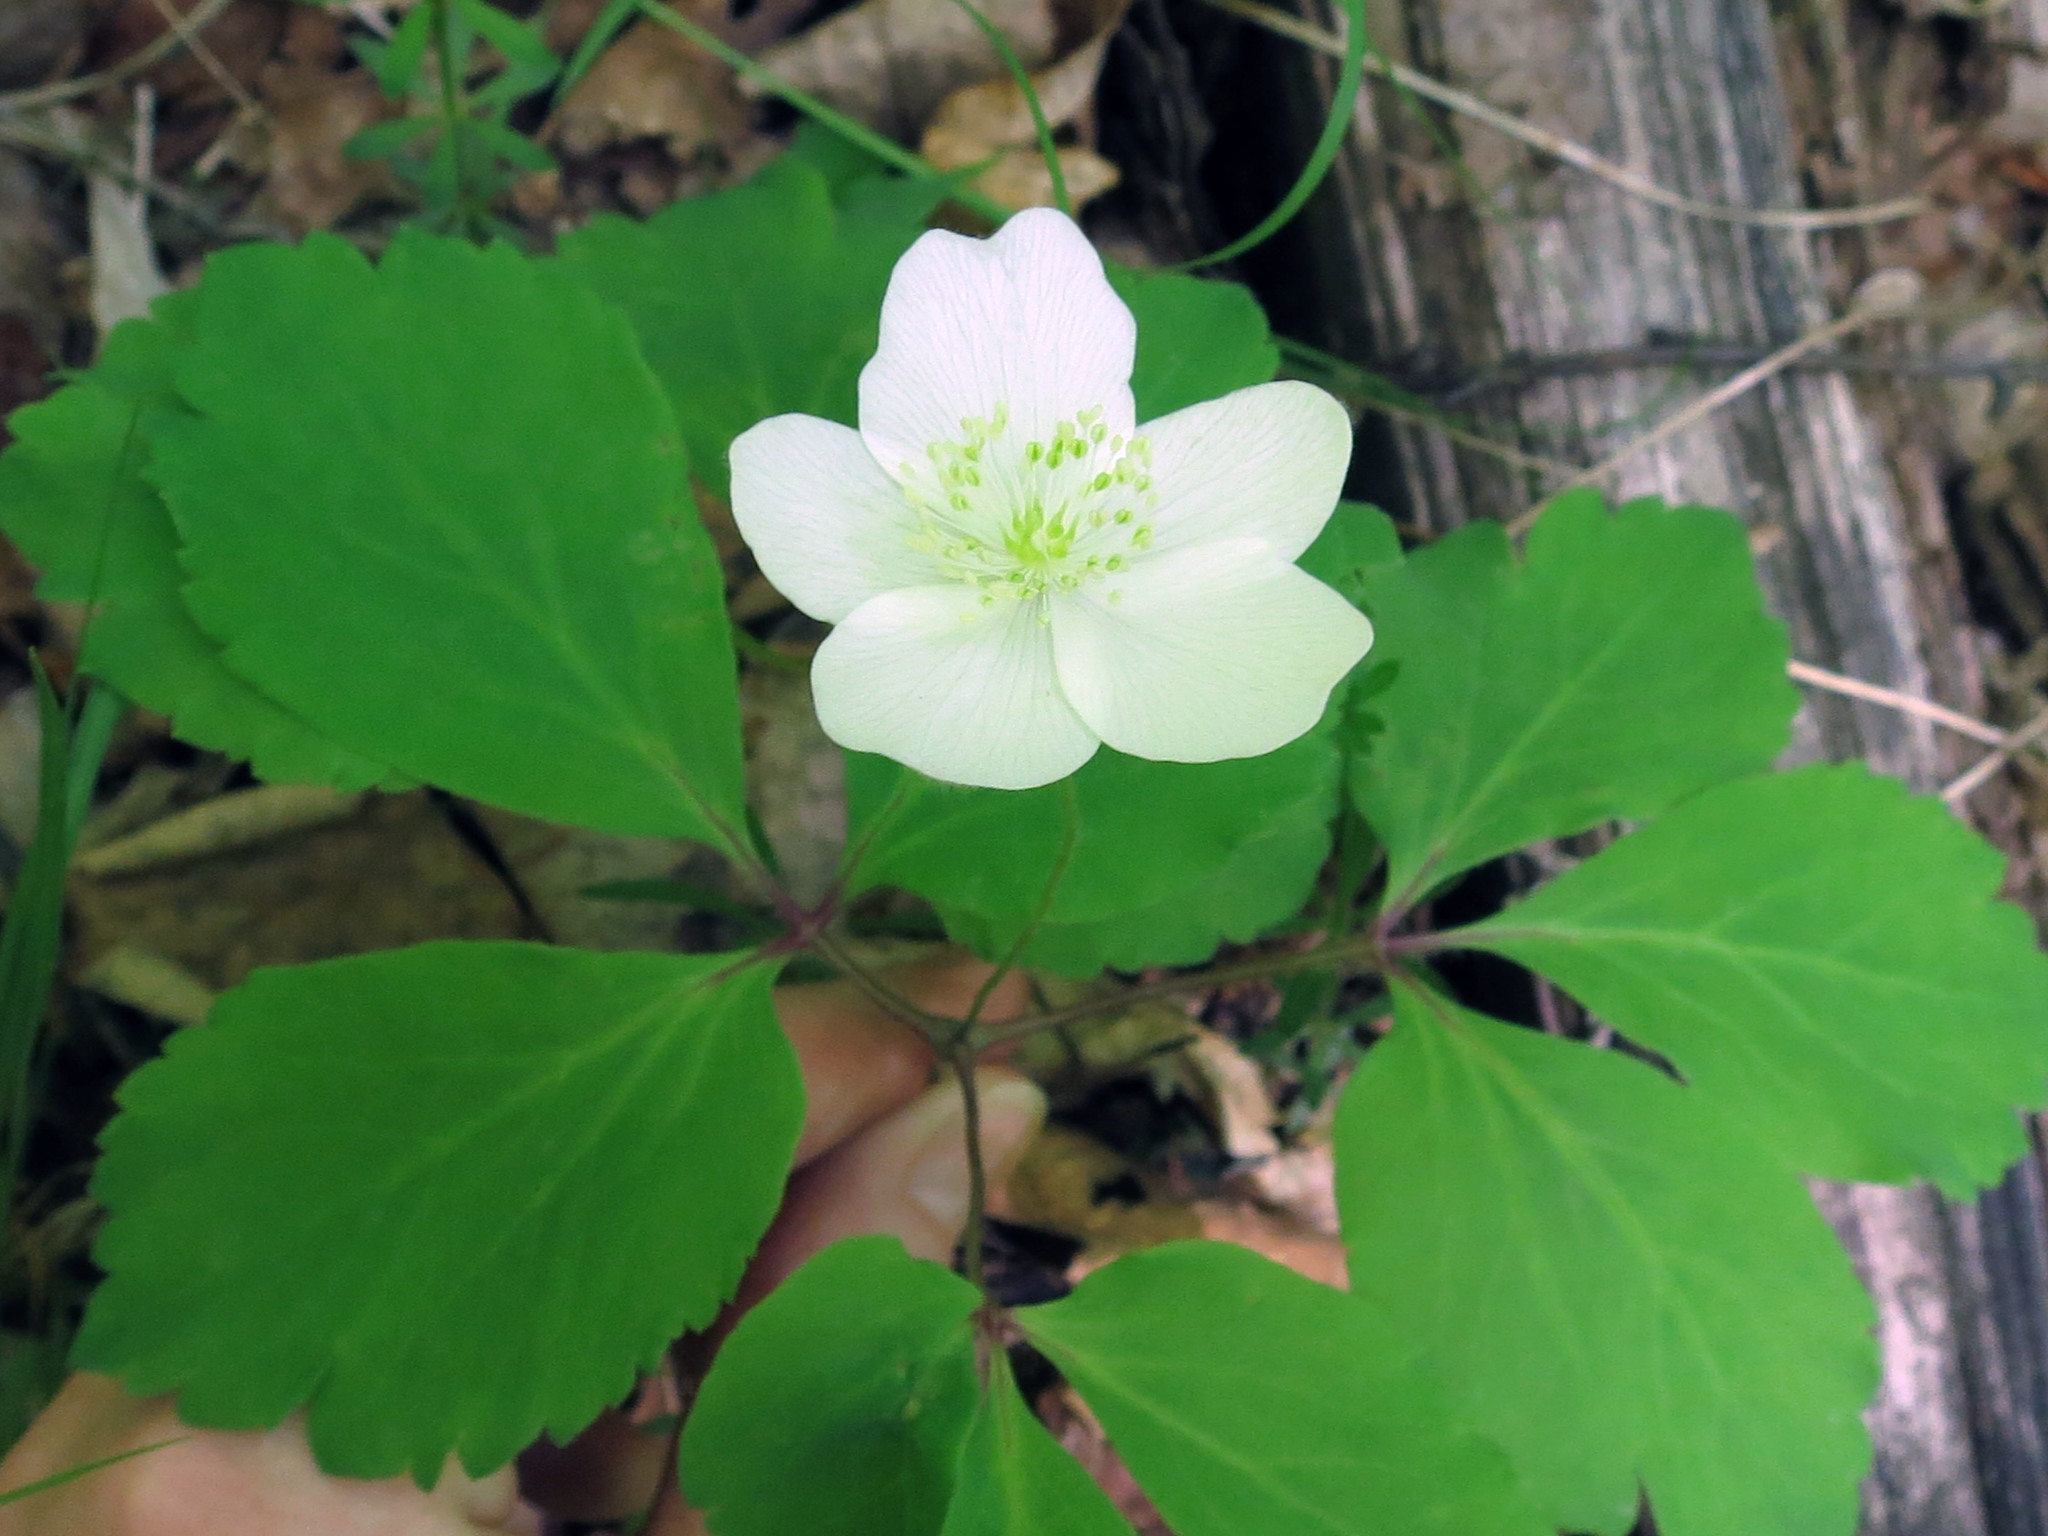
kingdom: Plantae
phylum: Tracheophyta
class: Magnoliopsida
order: Ranunculales
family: Ranunculaceae
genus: Anemone
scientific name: Anemone udensis
